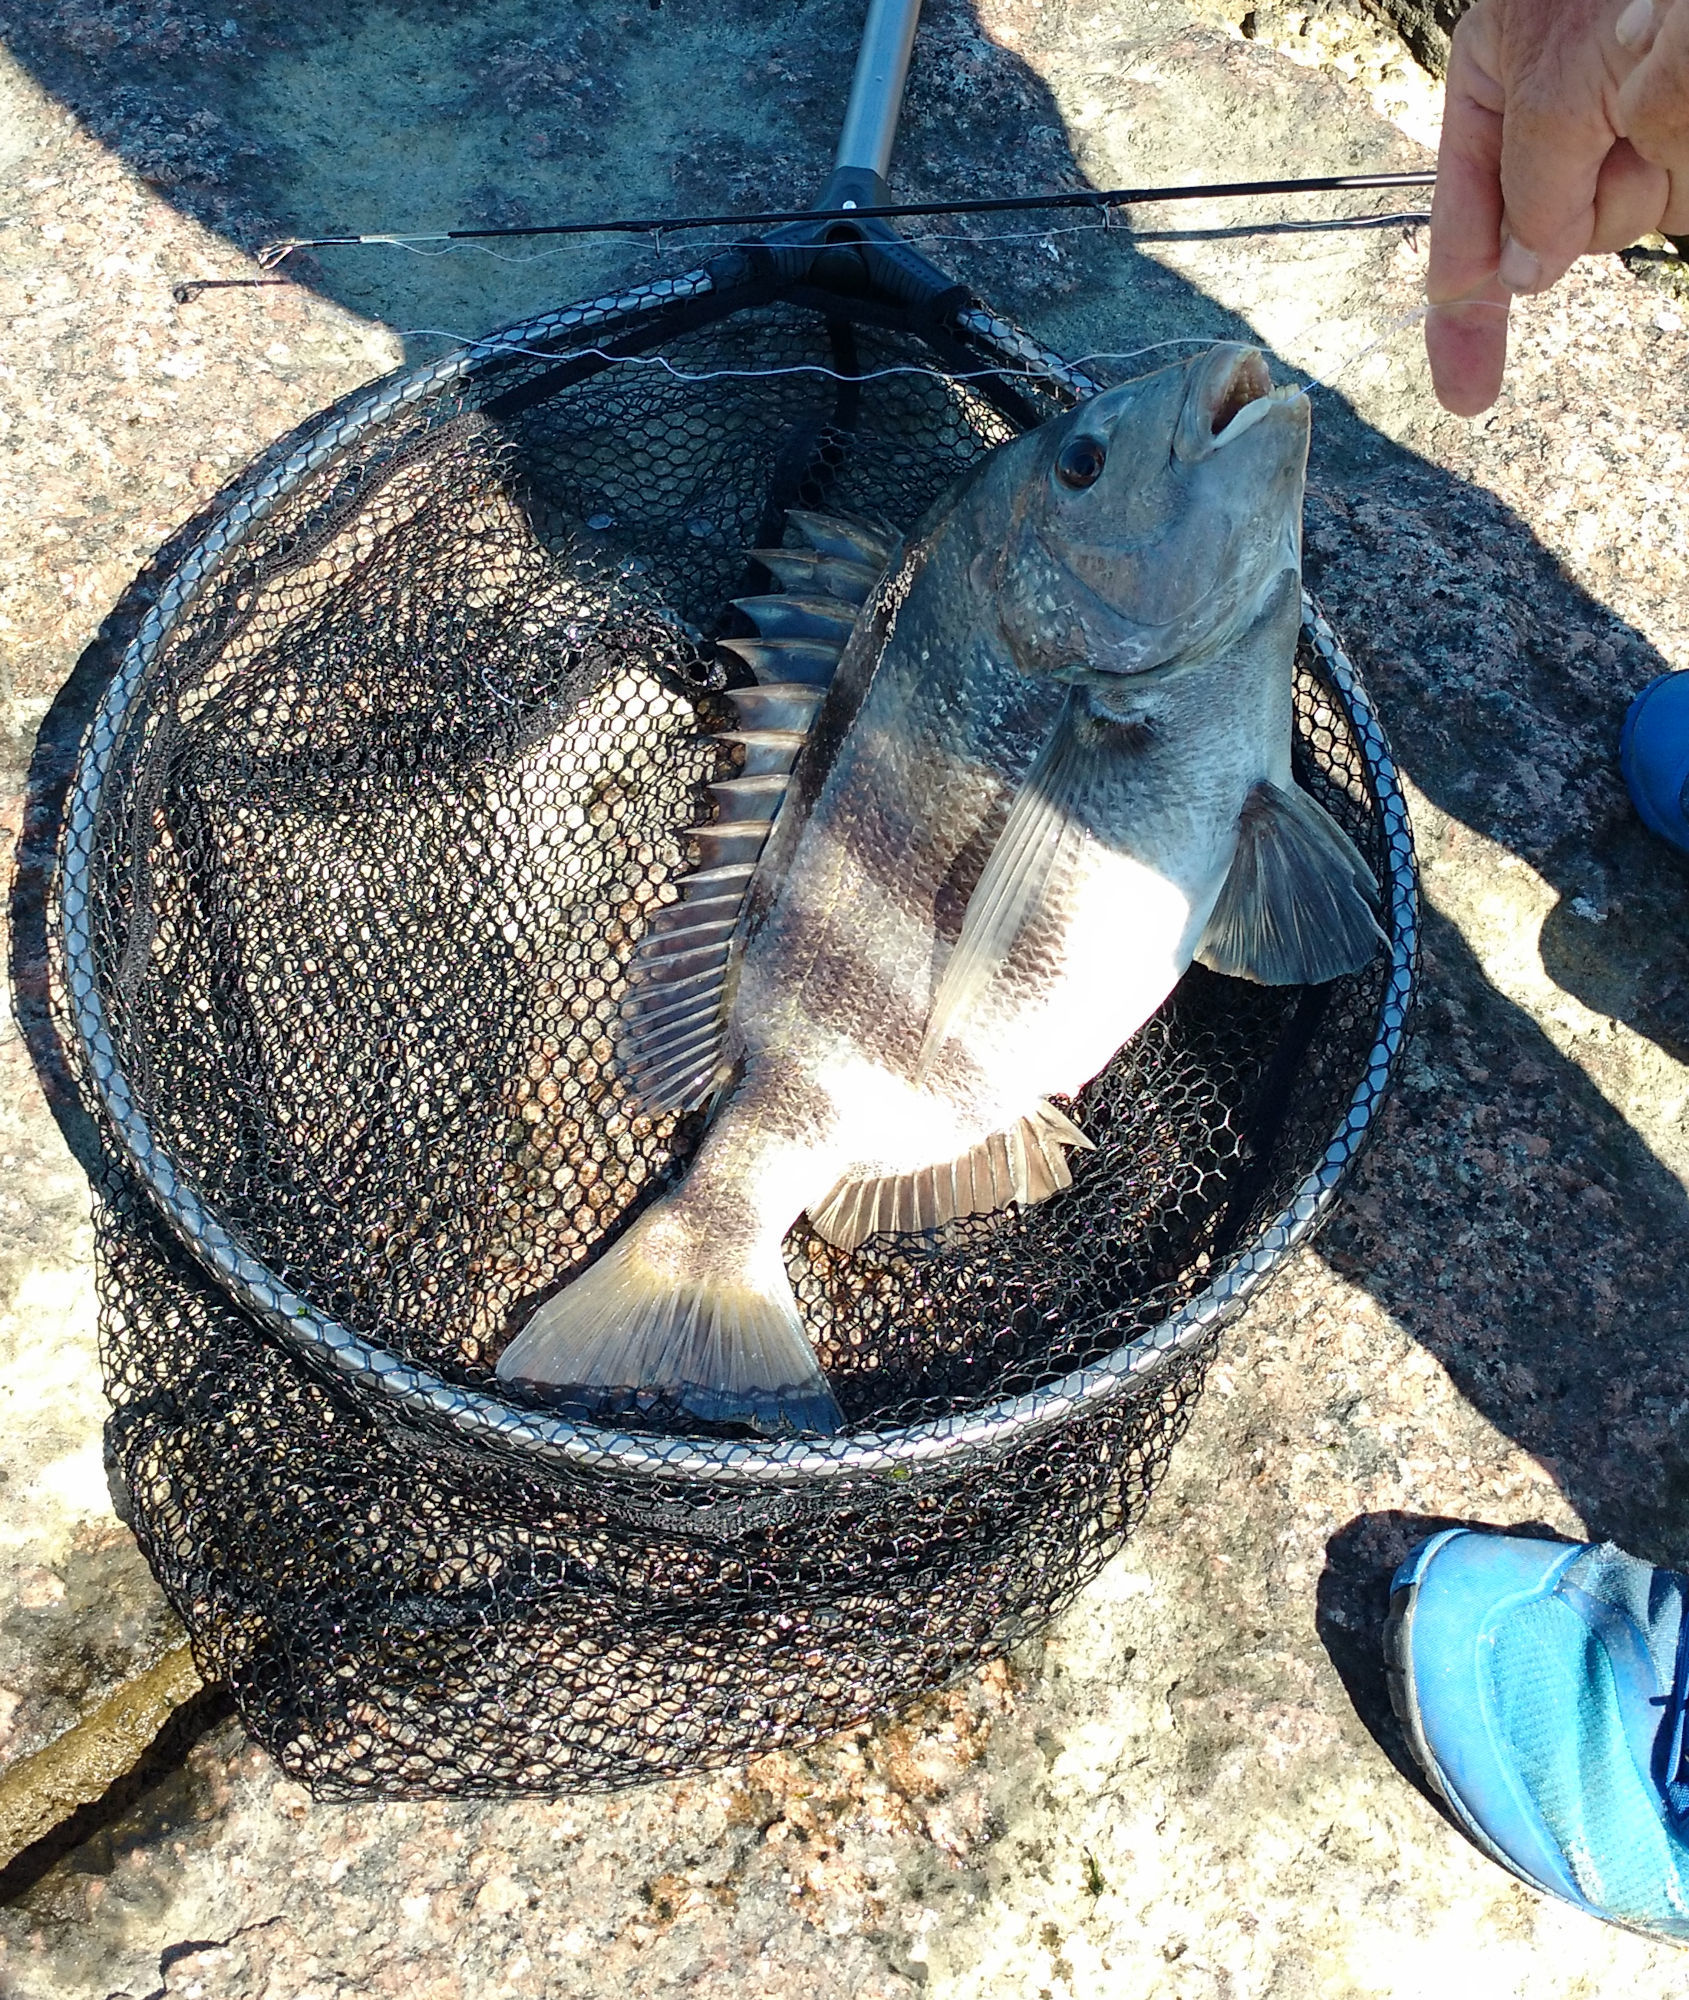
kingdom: Animalia
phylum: Chordata
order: Perciformes
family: Sparidae
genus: Archosargus
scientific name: Archosargus probatocephalus
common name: Sheepshead
